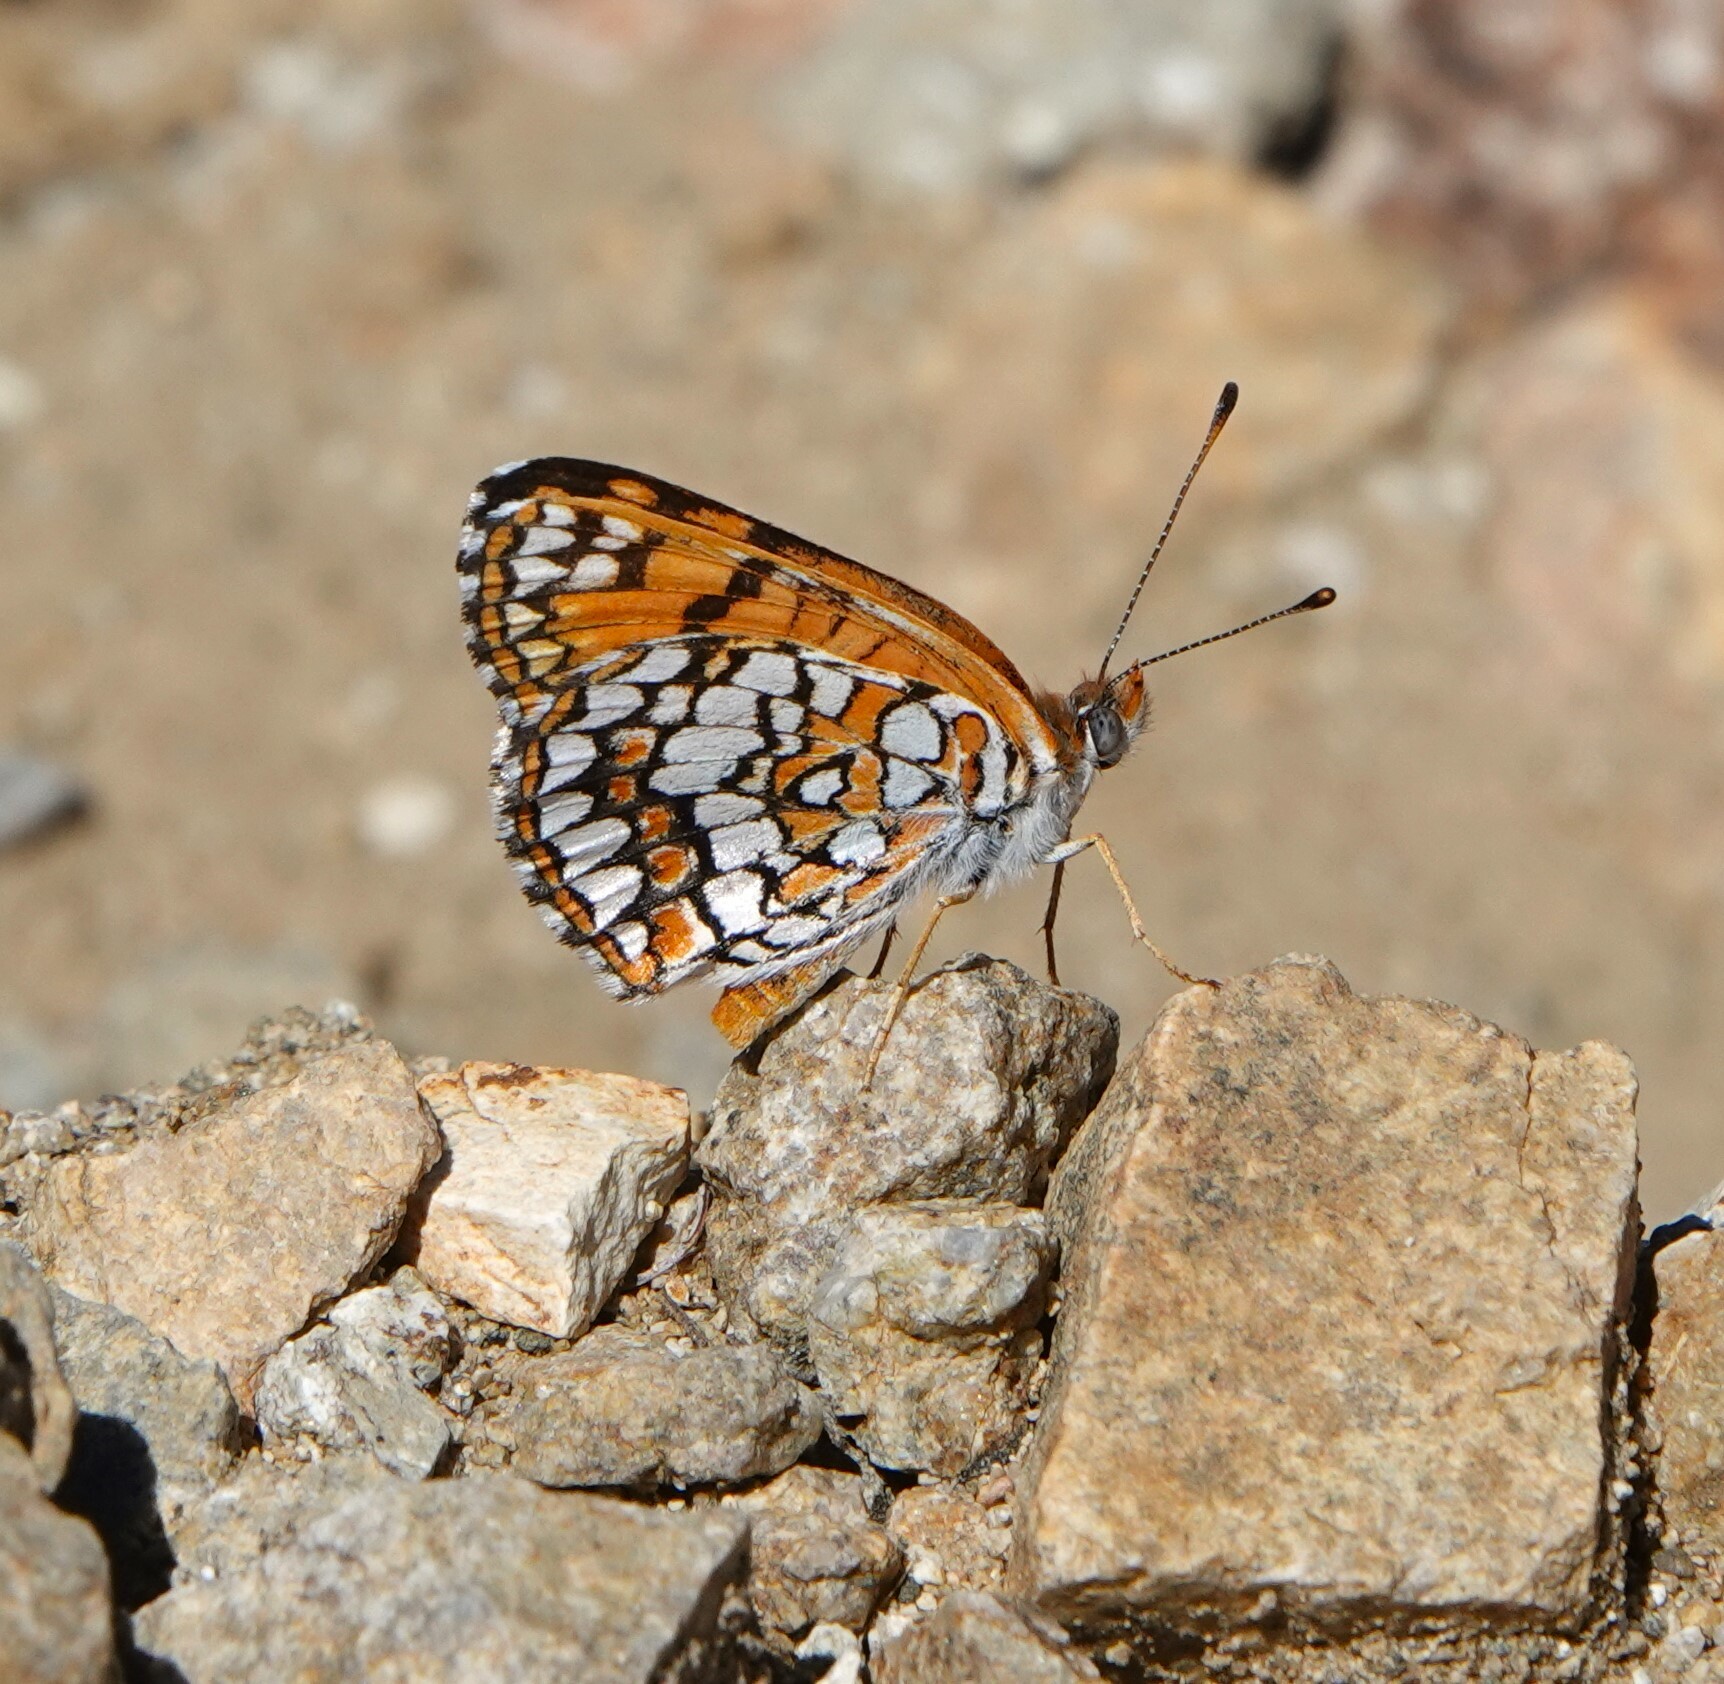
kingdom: Animalia
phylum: Arthropoda
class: Insecta
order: Lepidoptera
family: Nymphalidae
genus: Chlosyne
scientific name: Chlosyne acastus
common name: Sagebrush checkerspot
